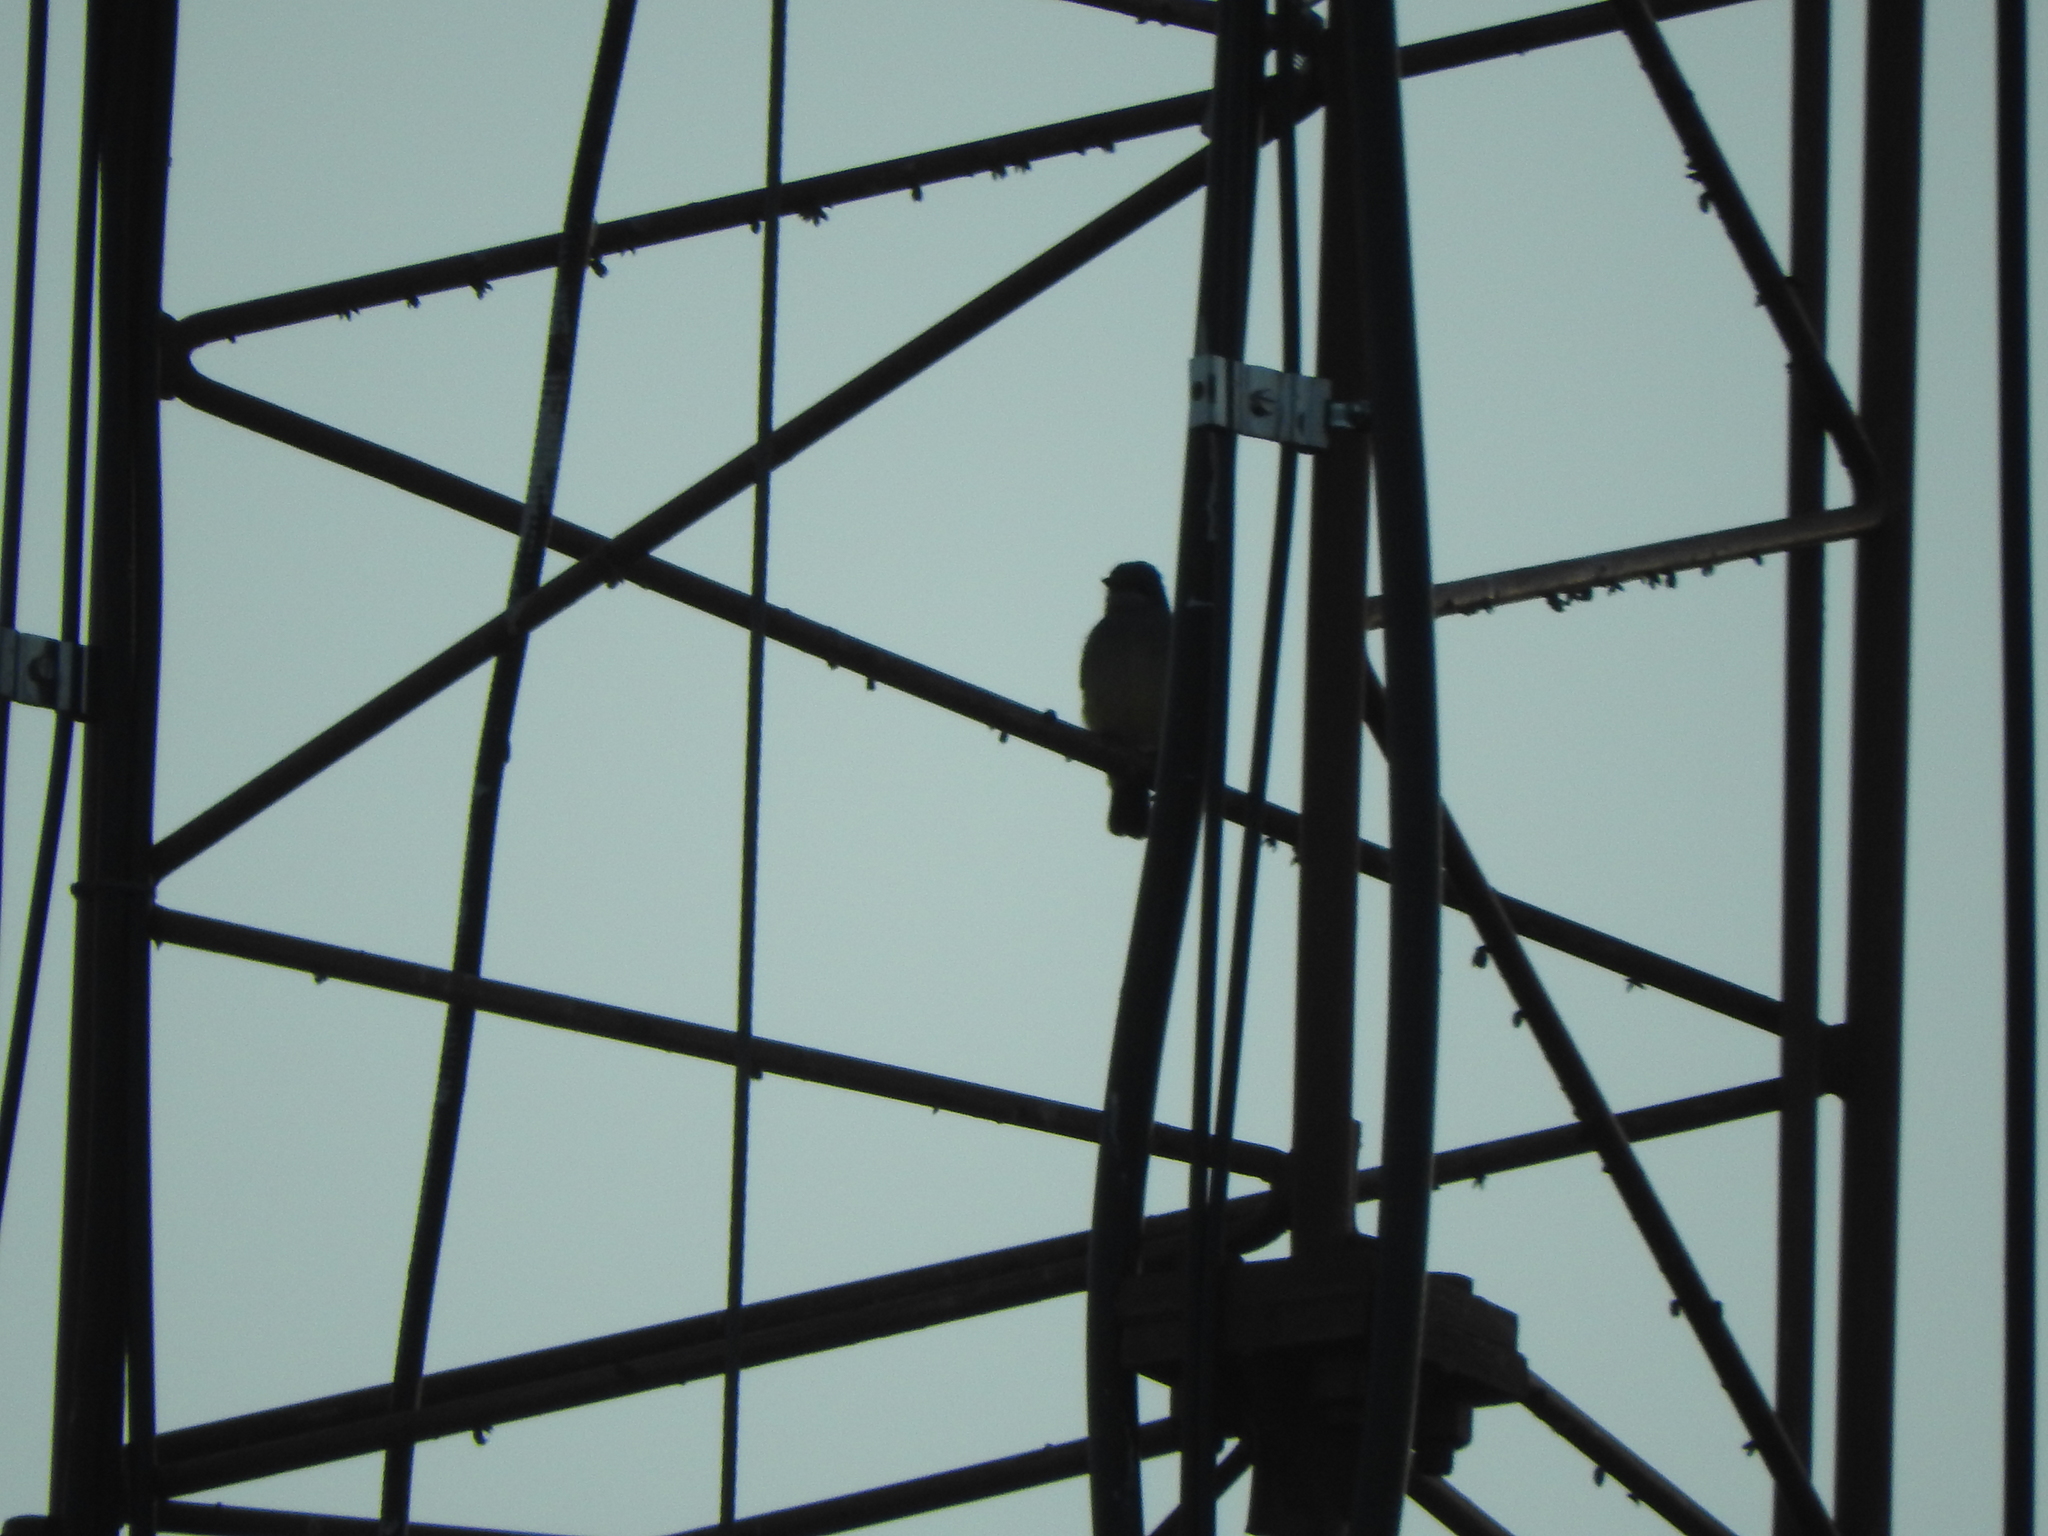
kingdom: Animalia
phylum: Chordata
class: Aves
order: Passeriformes
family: Tyrannidae
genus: Tyrannus
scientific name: Tyrannus vociferans
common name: Cassin's kingbird
